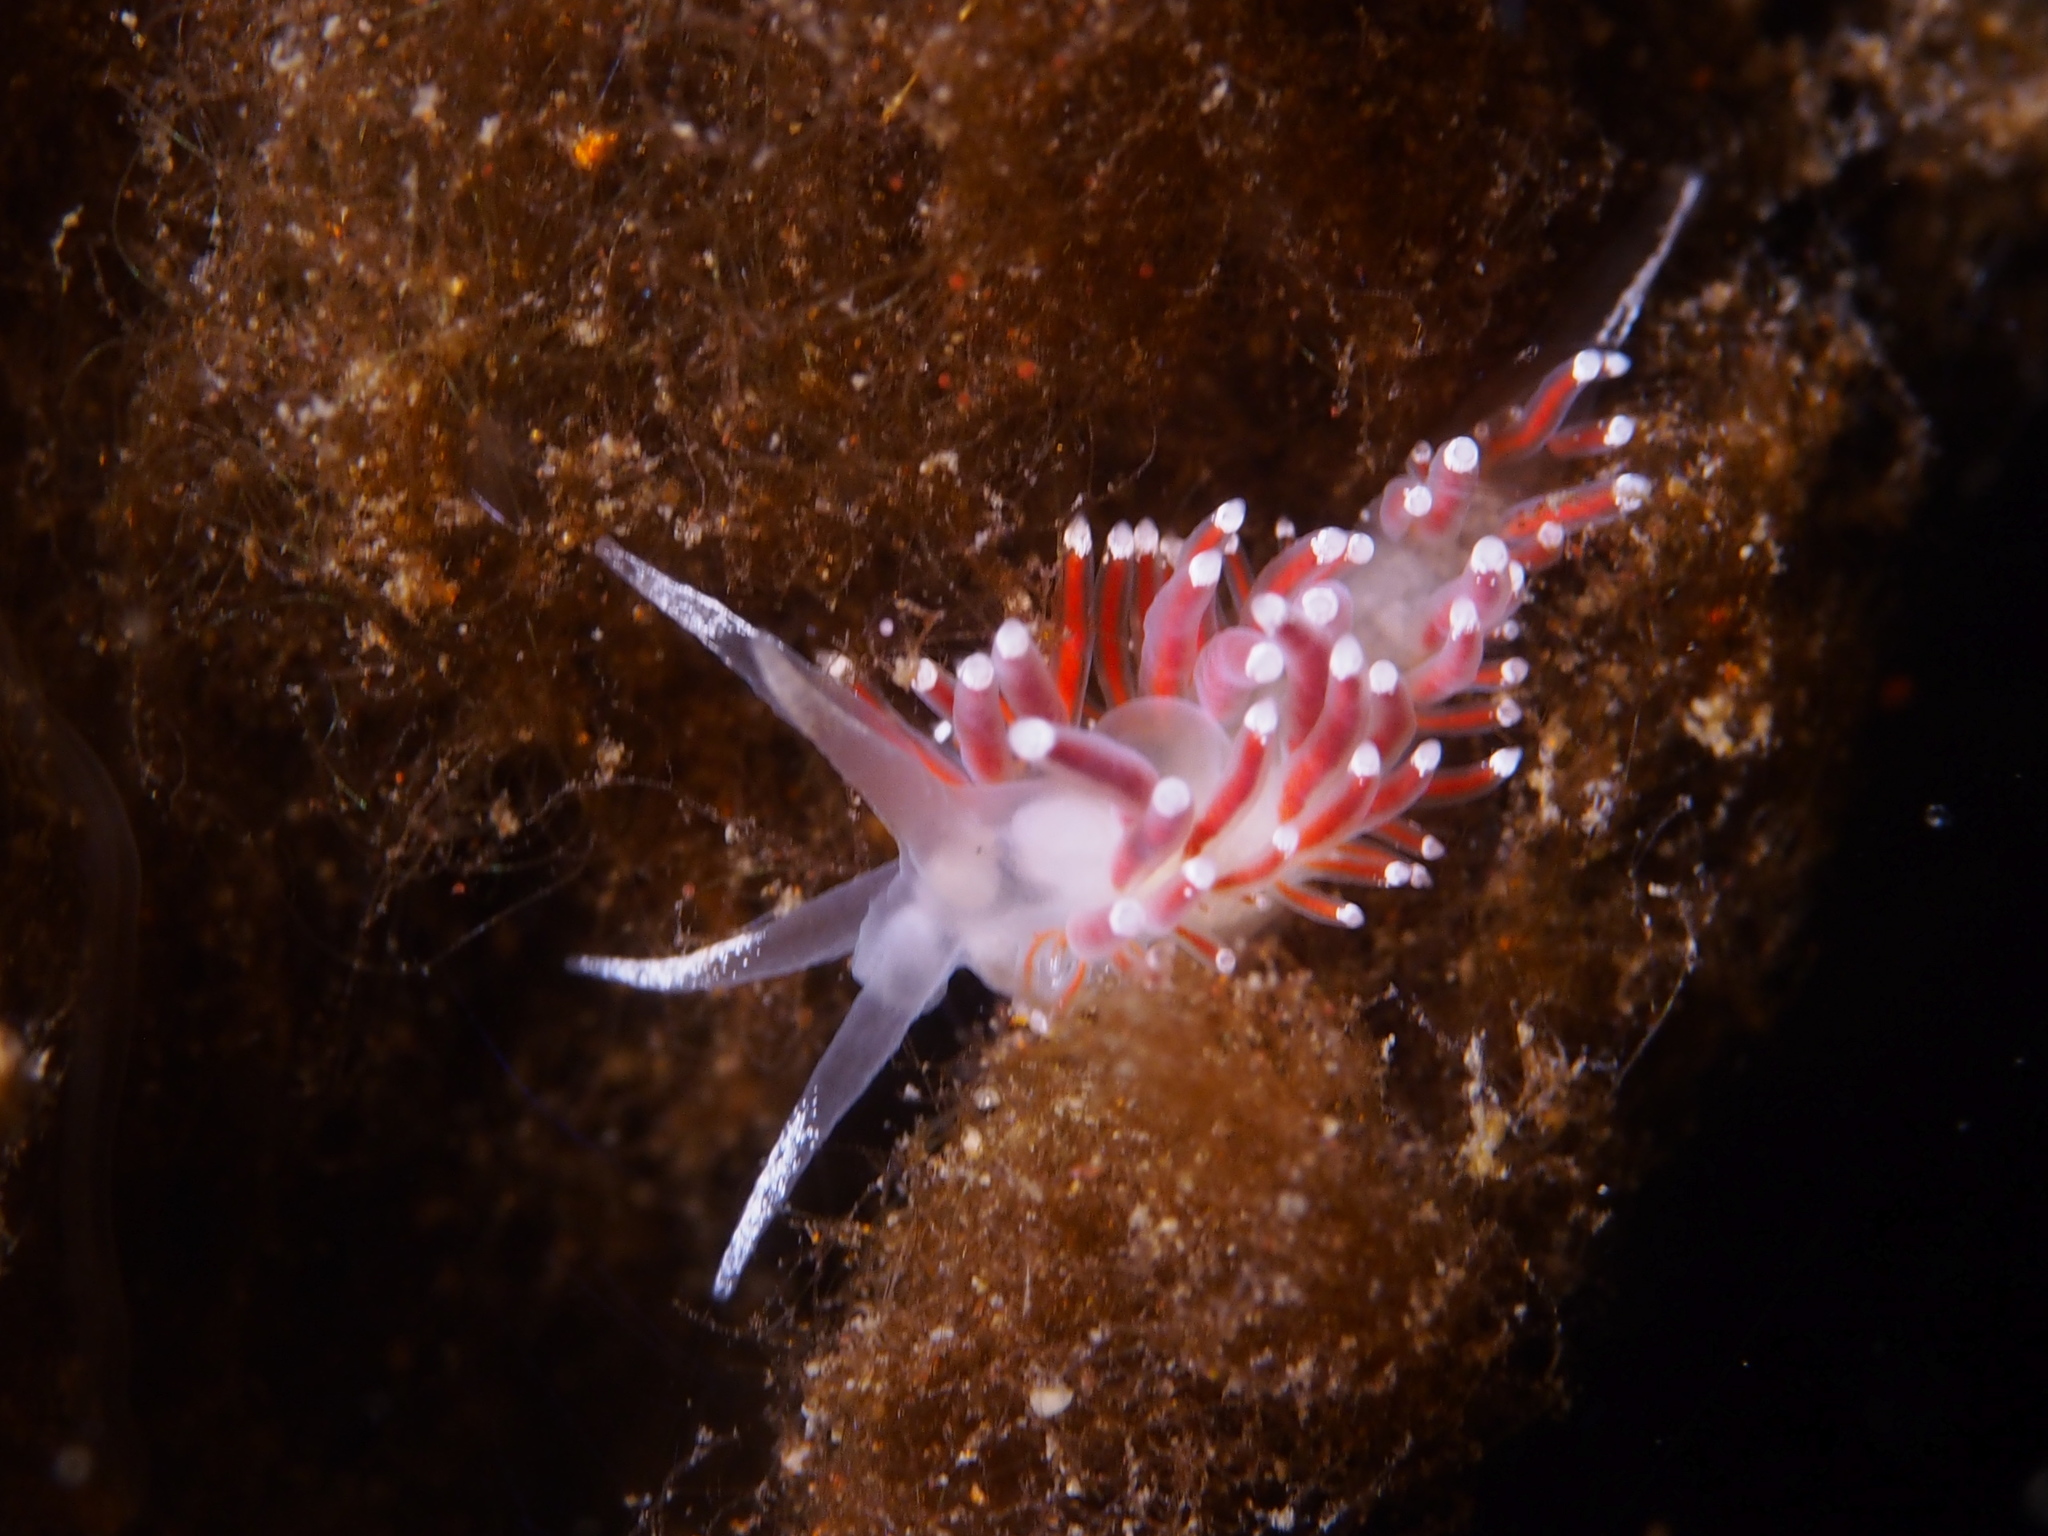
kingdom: Animalia
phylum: Mollusca
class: Gastropoda
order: Nudibranchia
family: Coryphellidae
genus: Coryphella
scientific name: Coryphella gracilis
